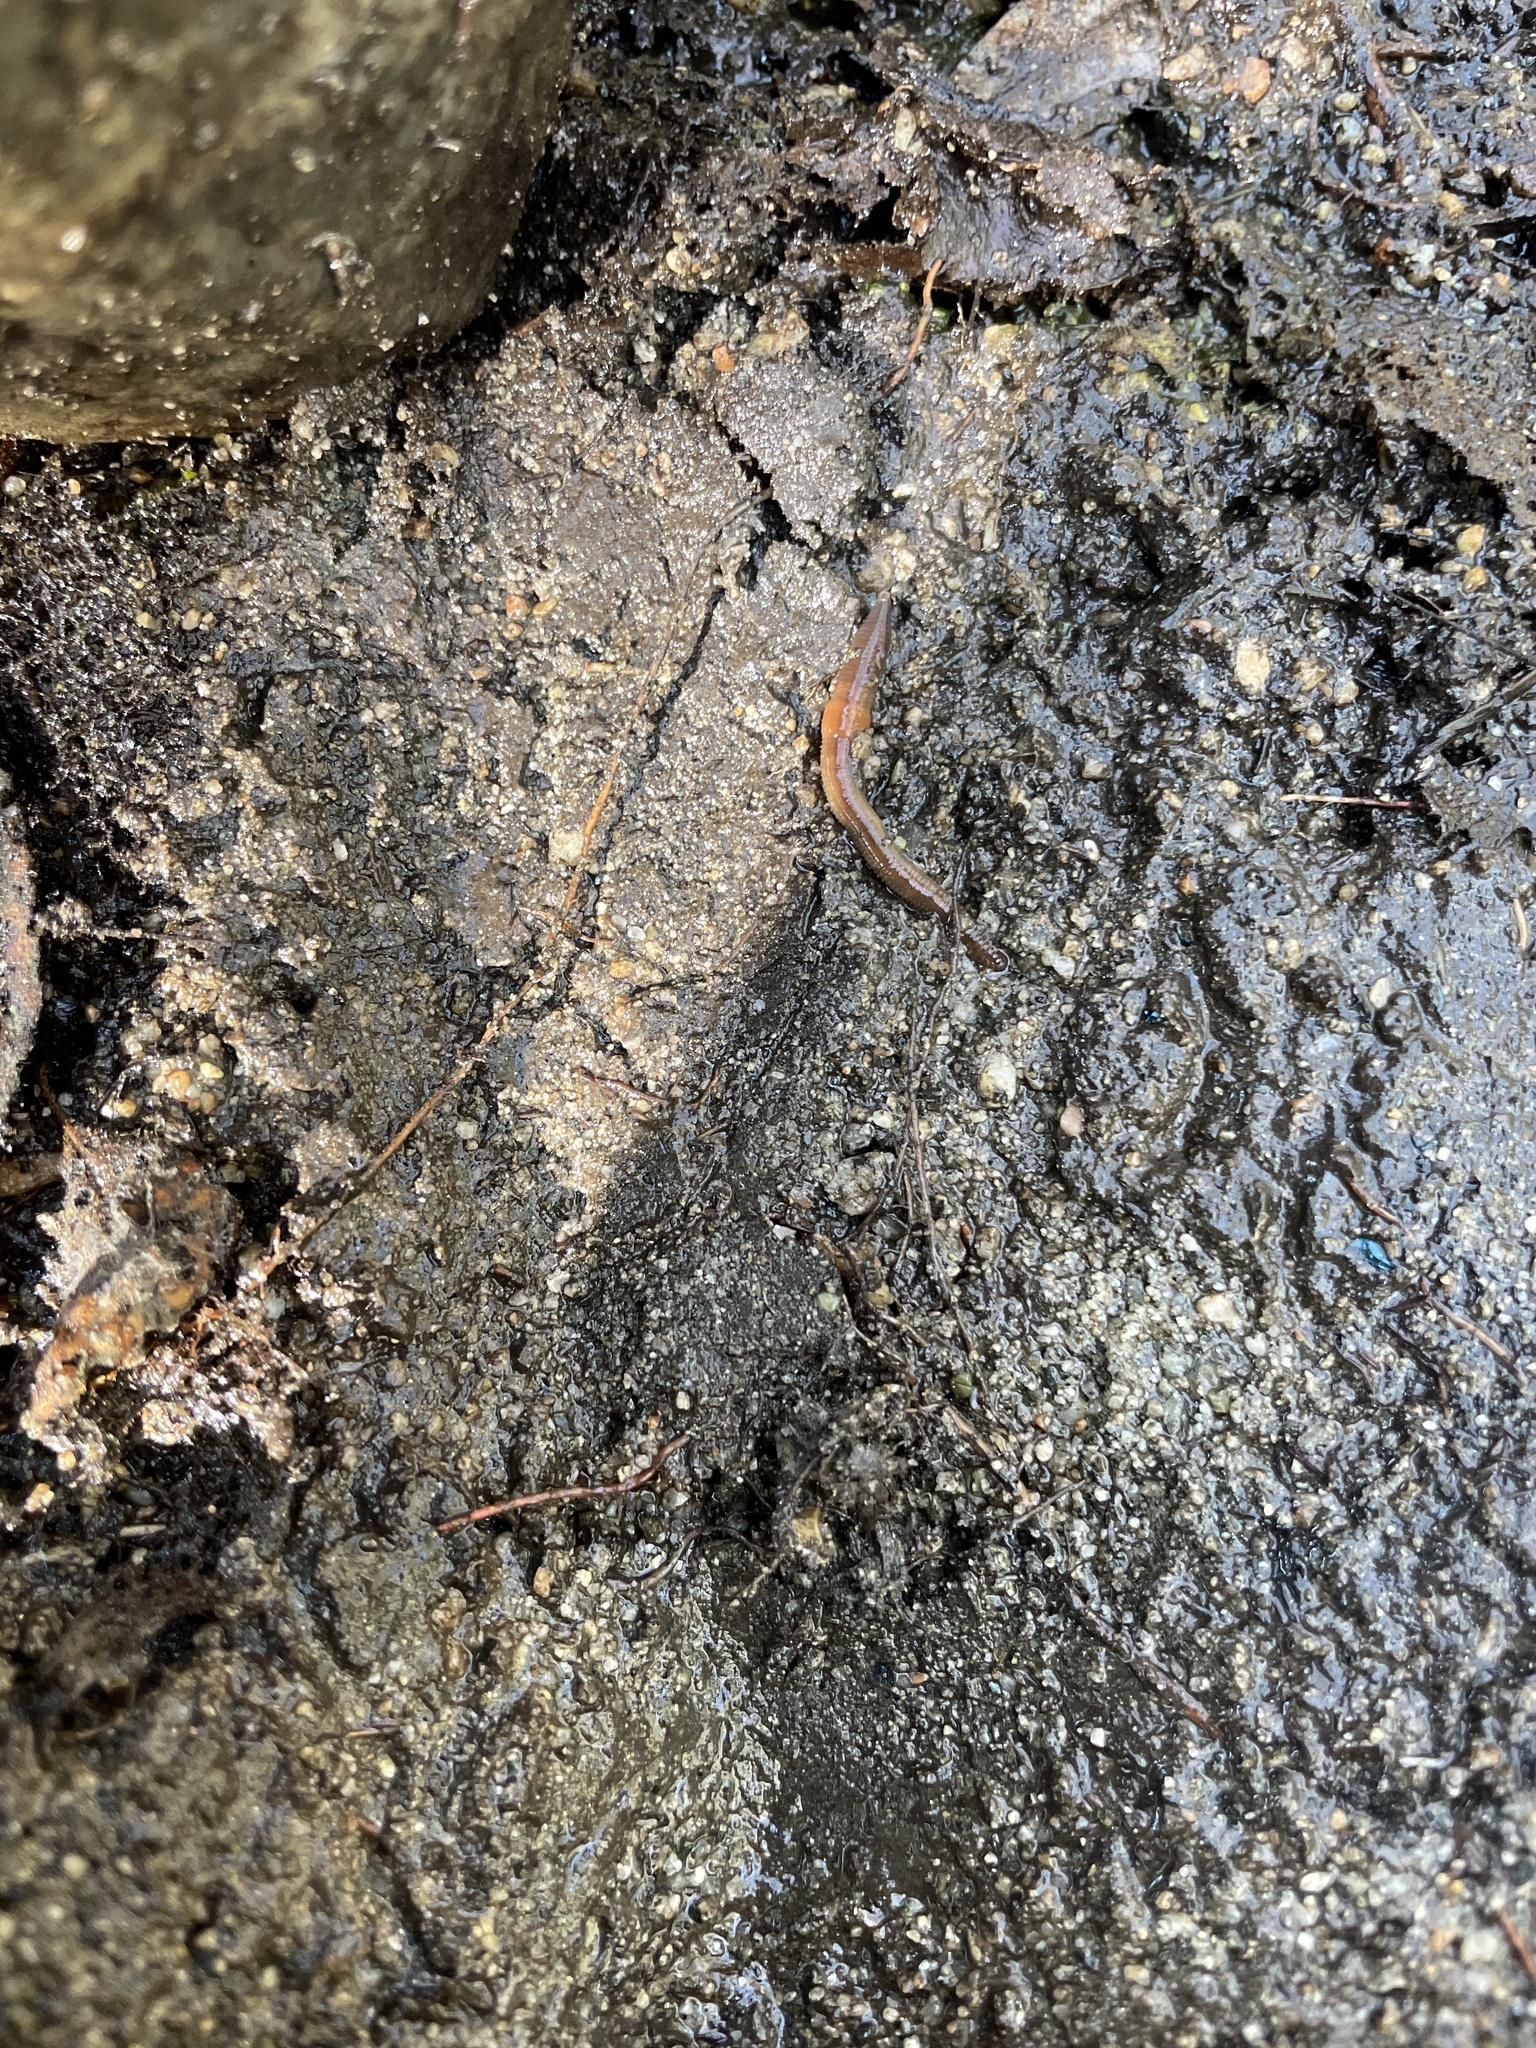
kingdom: Animalia
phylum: Annelida
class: Clitellata
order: Crassiclitellata
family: Lumbricidae
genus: Lumbricus
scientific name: Lumbricus terrestris
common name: Common earthworm
